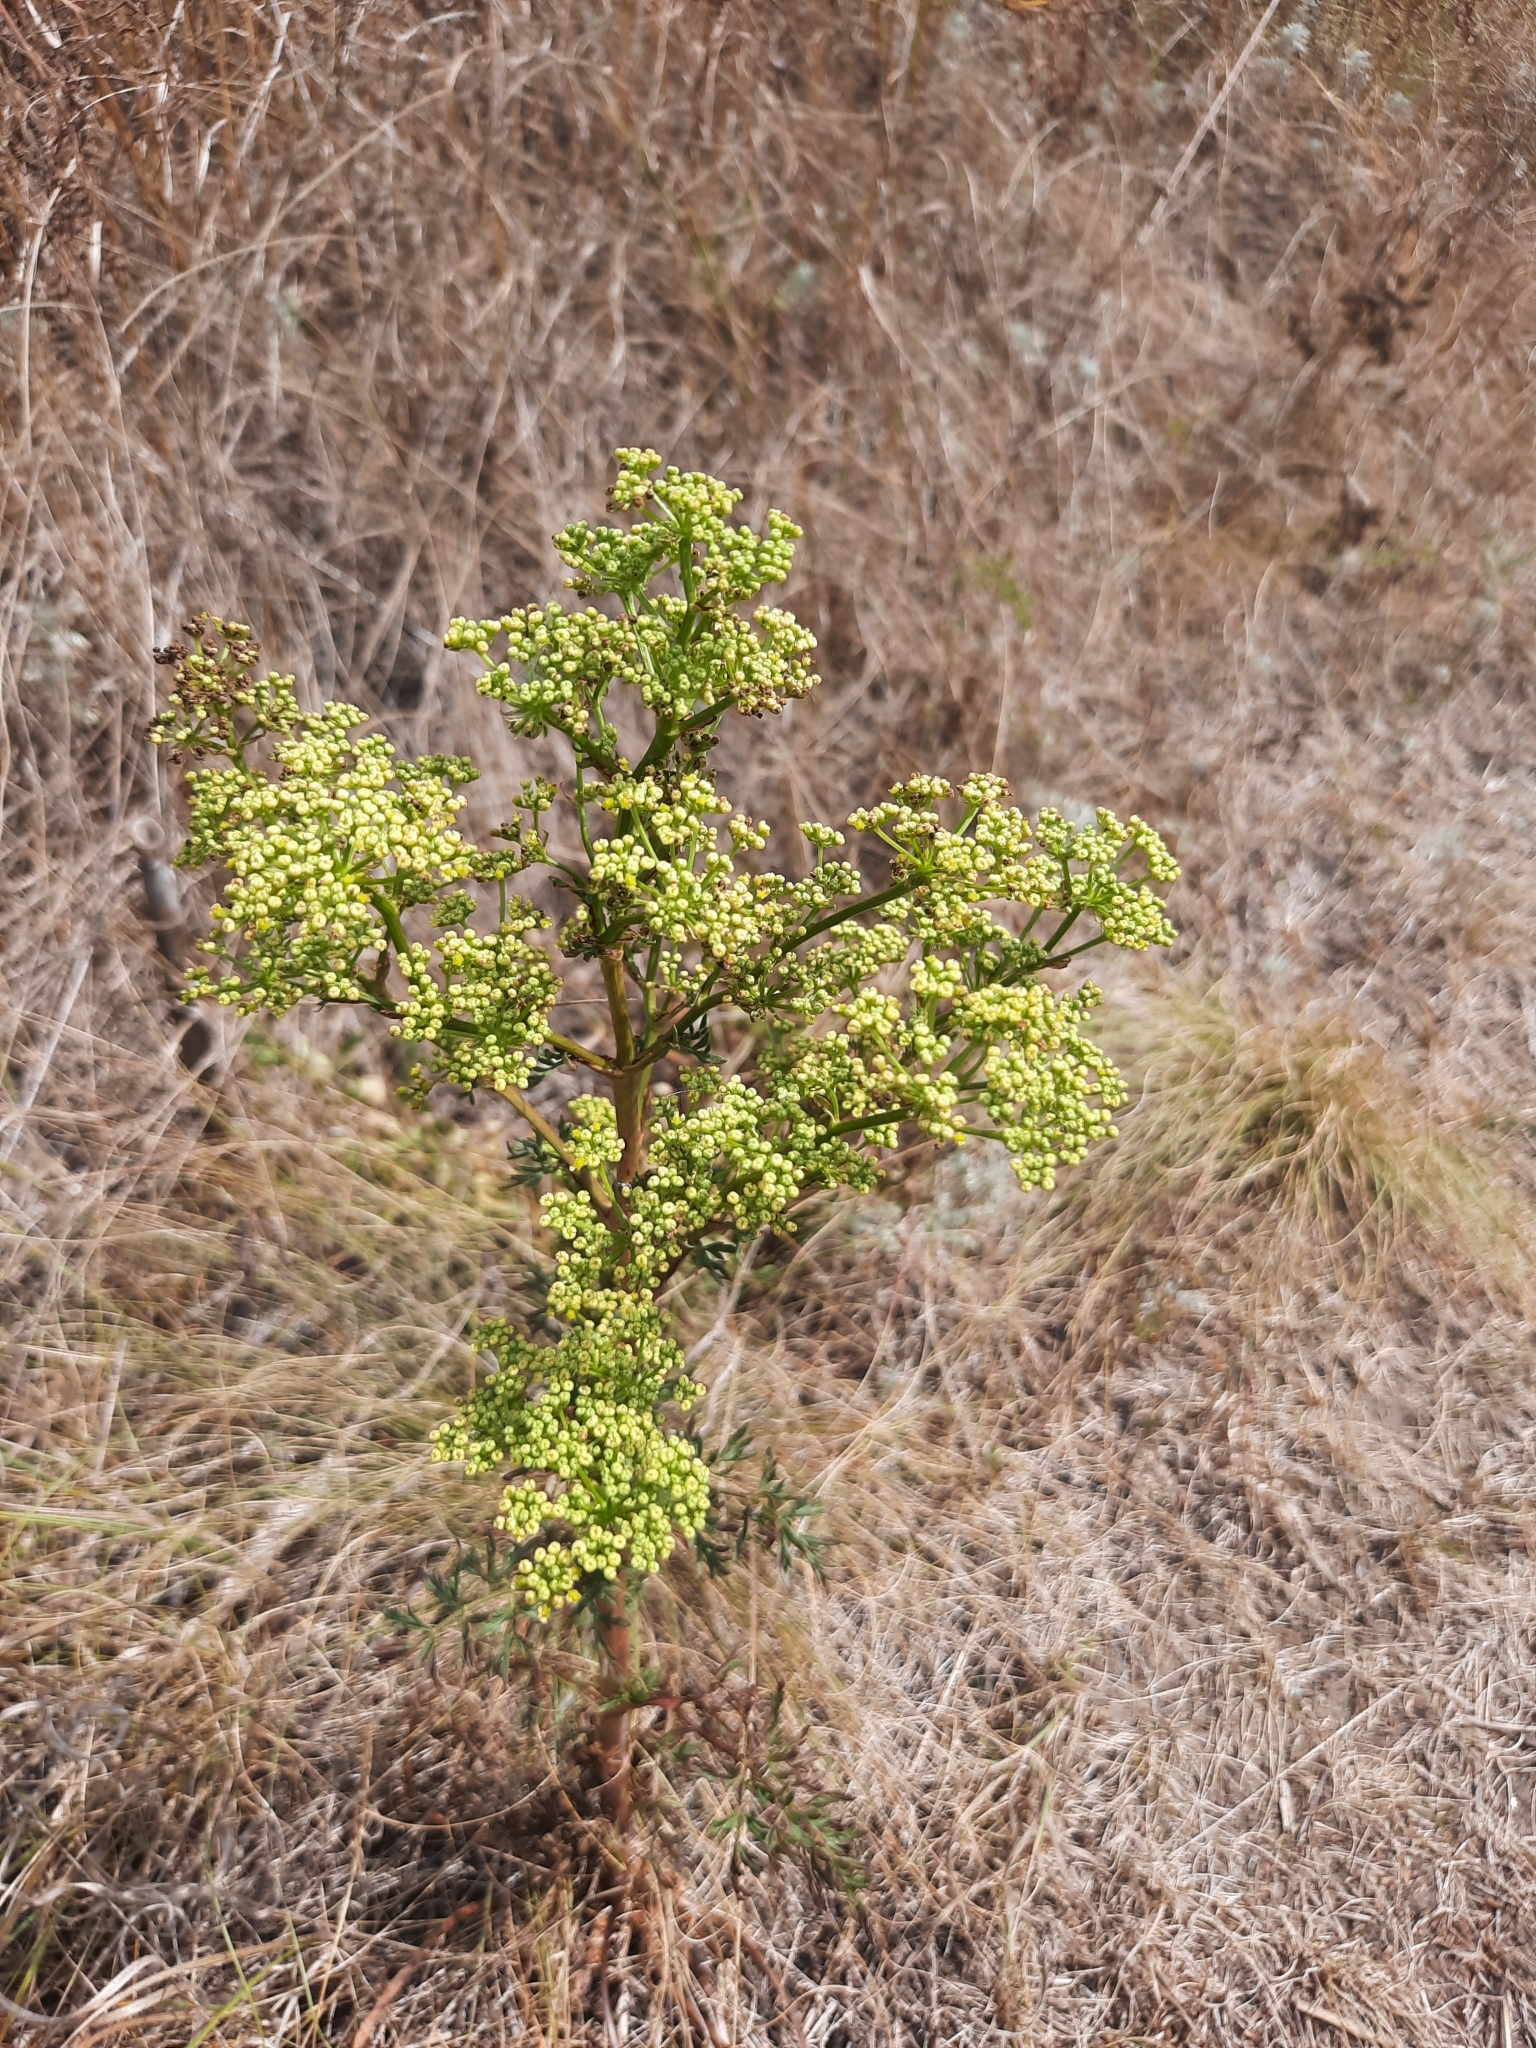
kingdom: Plantae
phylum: Tracheophyta
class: Magnoliopsida
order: Apiales
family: Apiaceae
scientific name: Apiaceae
